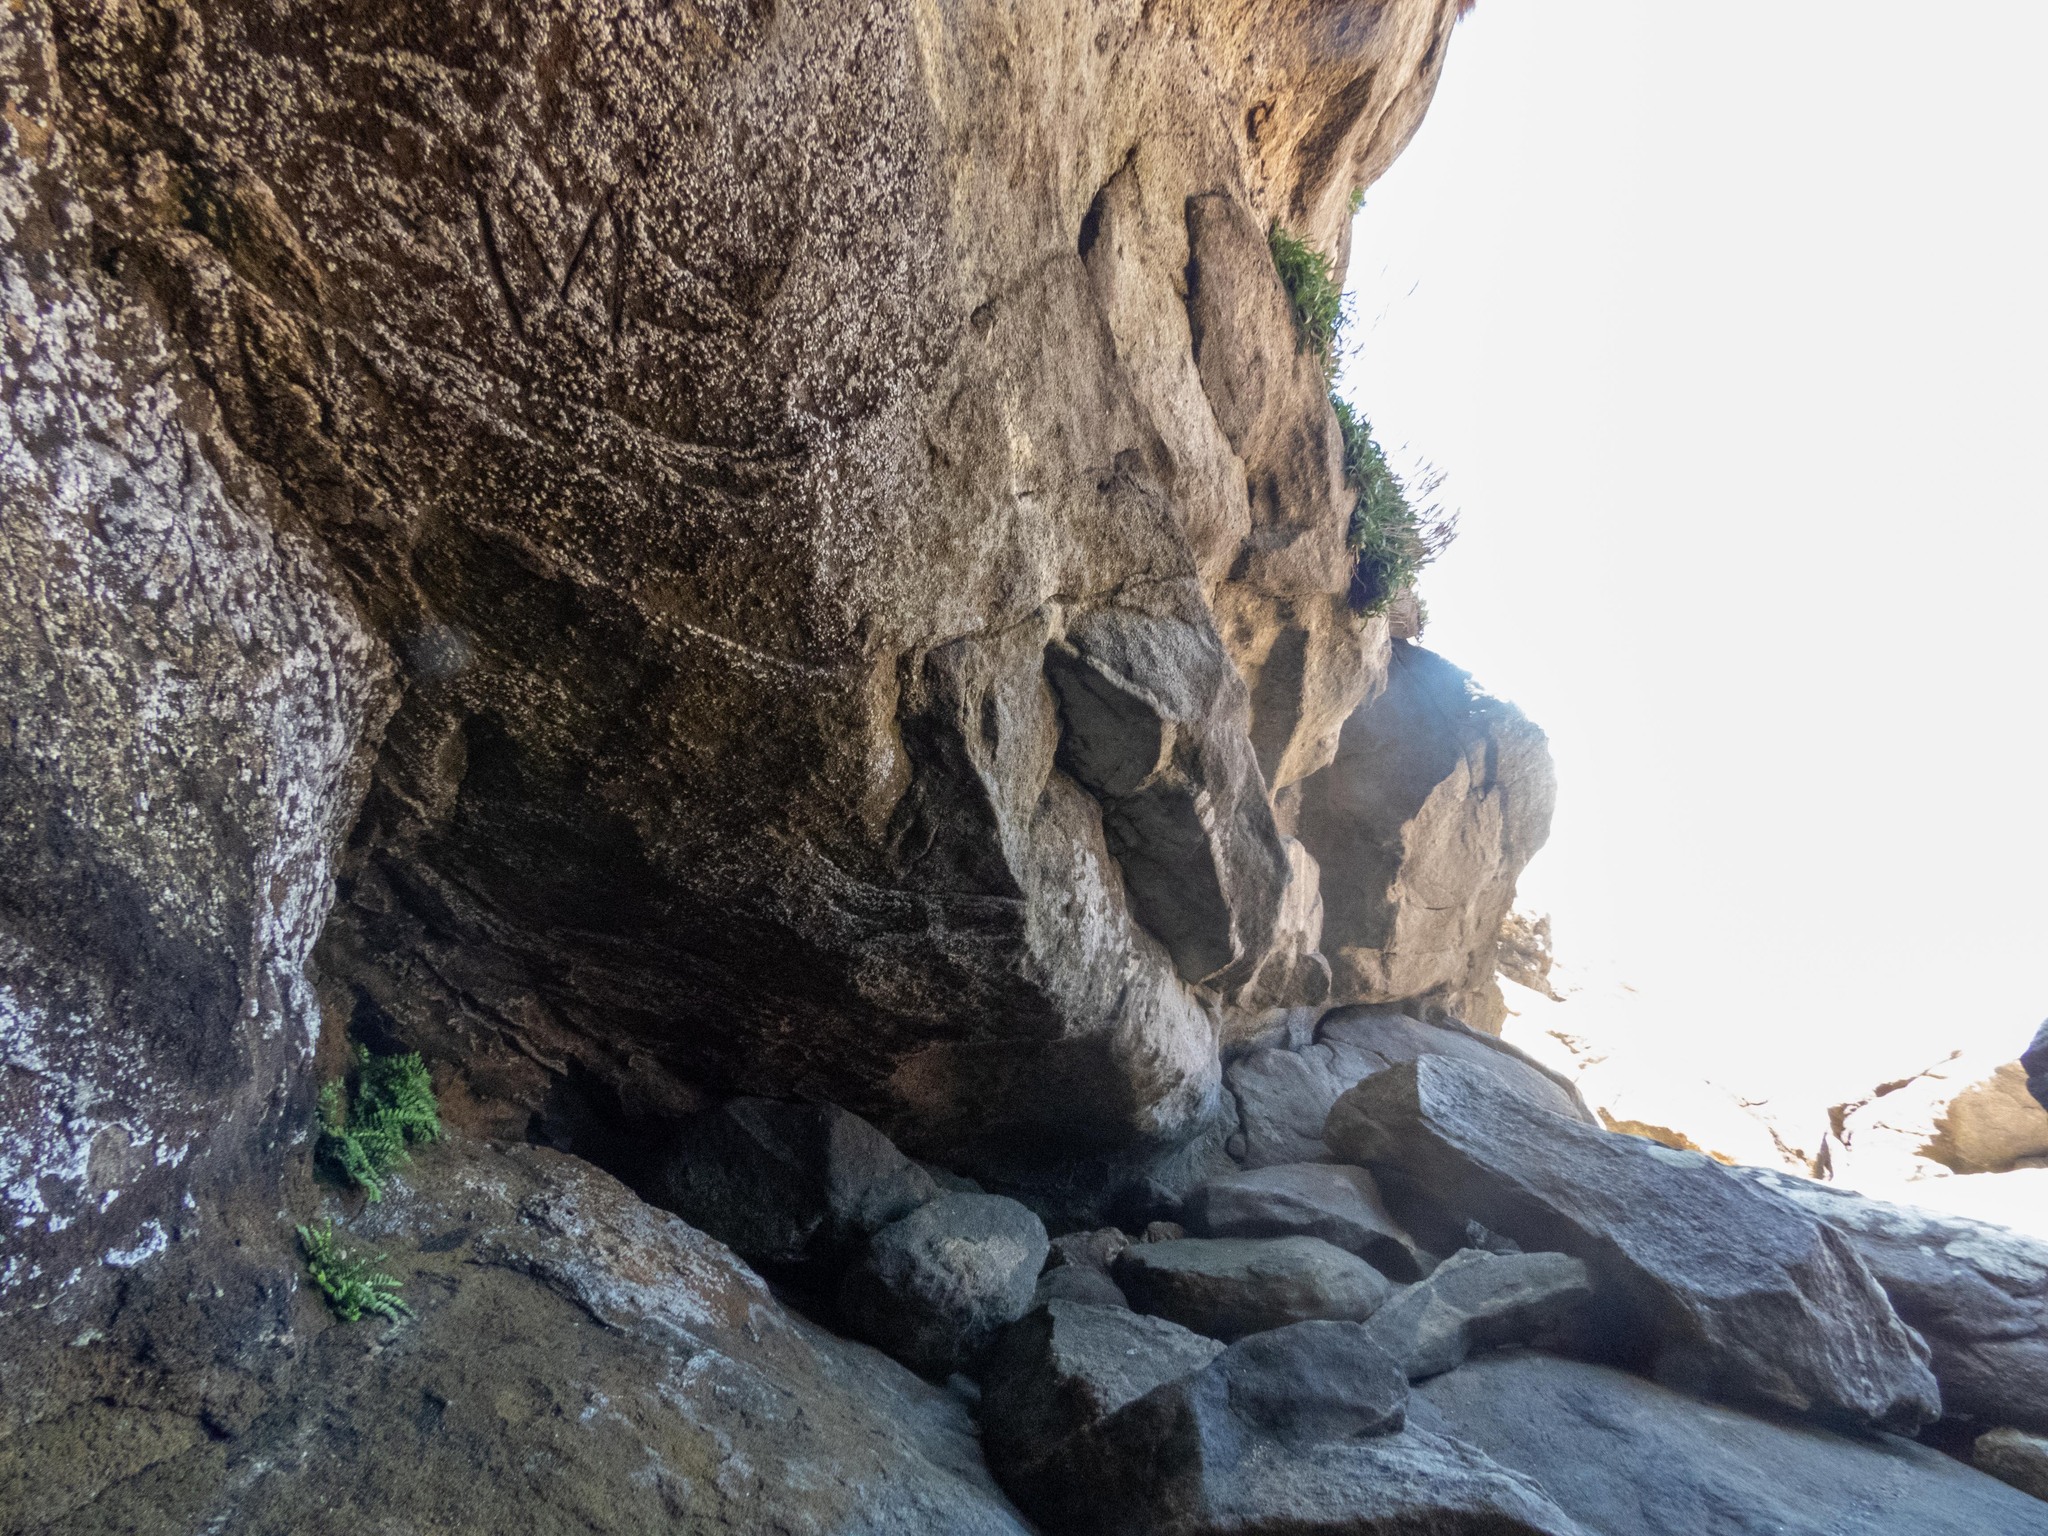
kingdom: Plantae
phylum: Tracheophyta
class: Polypodiopsida
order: Polypodiales
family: Aspleniaceae
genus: Asplenium
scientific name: Asplenium marinum
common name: Sea spleenwort
